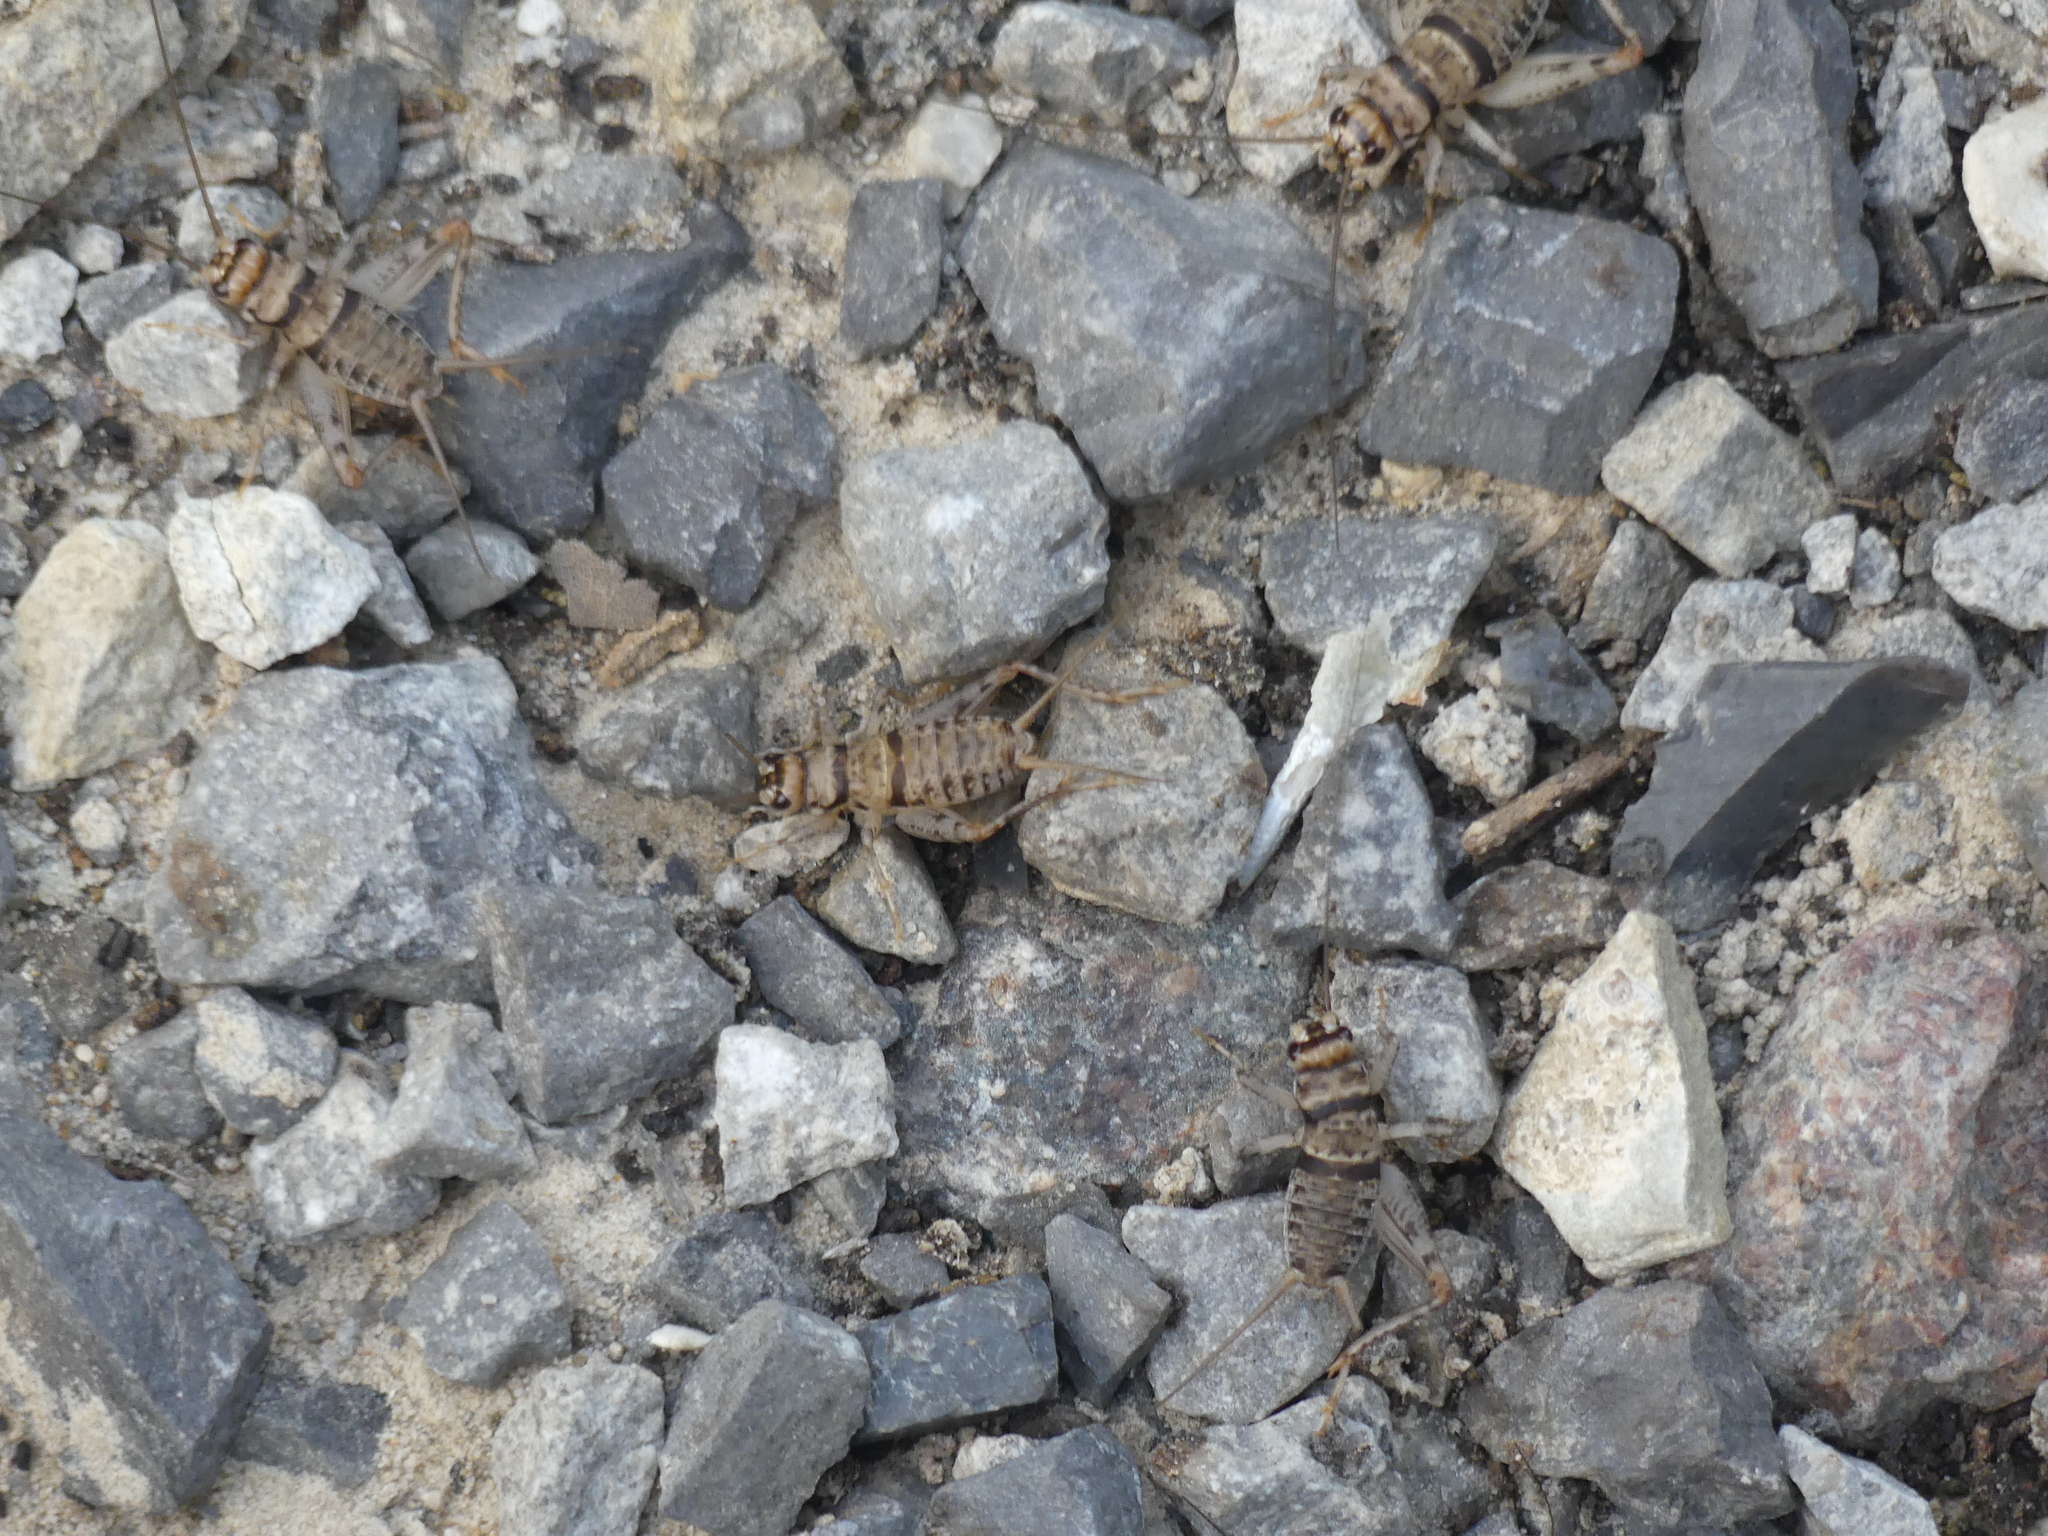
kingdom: Animalia
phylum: Arthropoda
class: Insecta
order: Orthoptera
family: Gryllidae
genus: Gryllodes
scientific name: Gryllodes sigillatus
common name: Tropical house cricket
